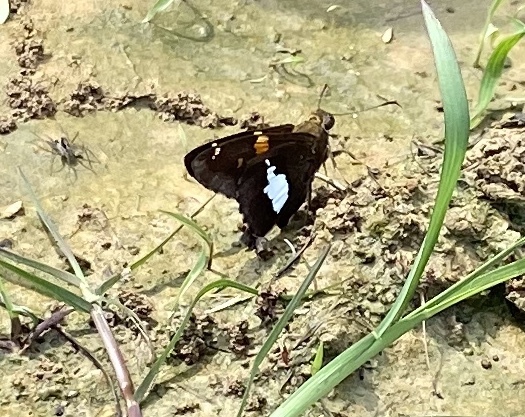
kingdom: Animalia
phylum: Arthropoda
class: Insecta
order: Lepidoptera
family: Hesperiidae
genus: Epargyreus
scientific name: Epargyreus clarus
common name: Silver-spotted skipper
